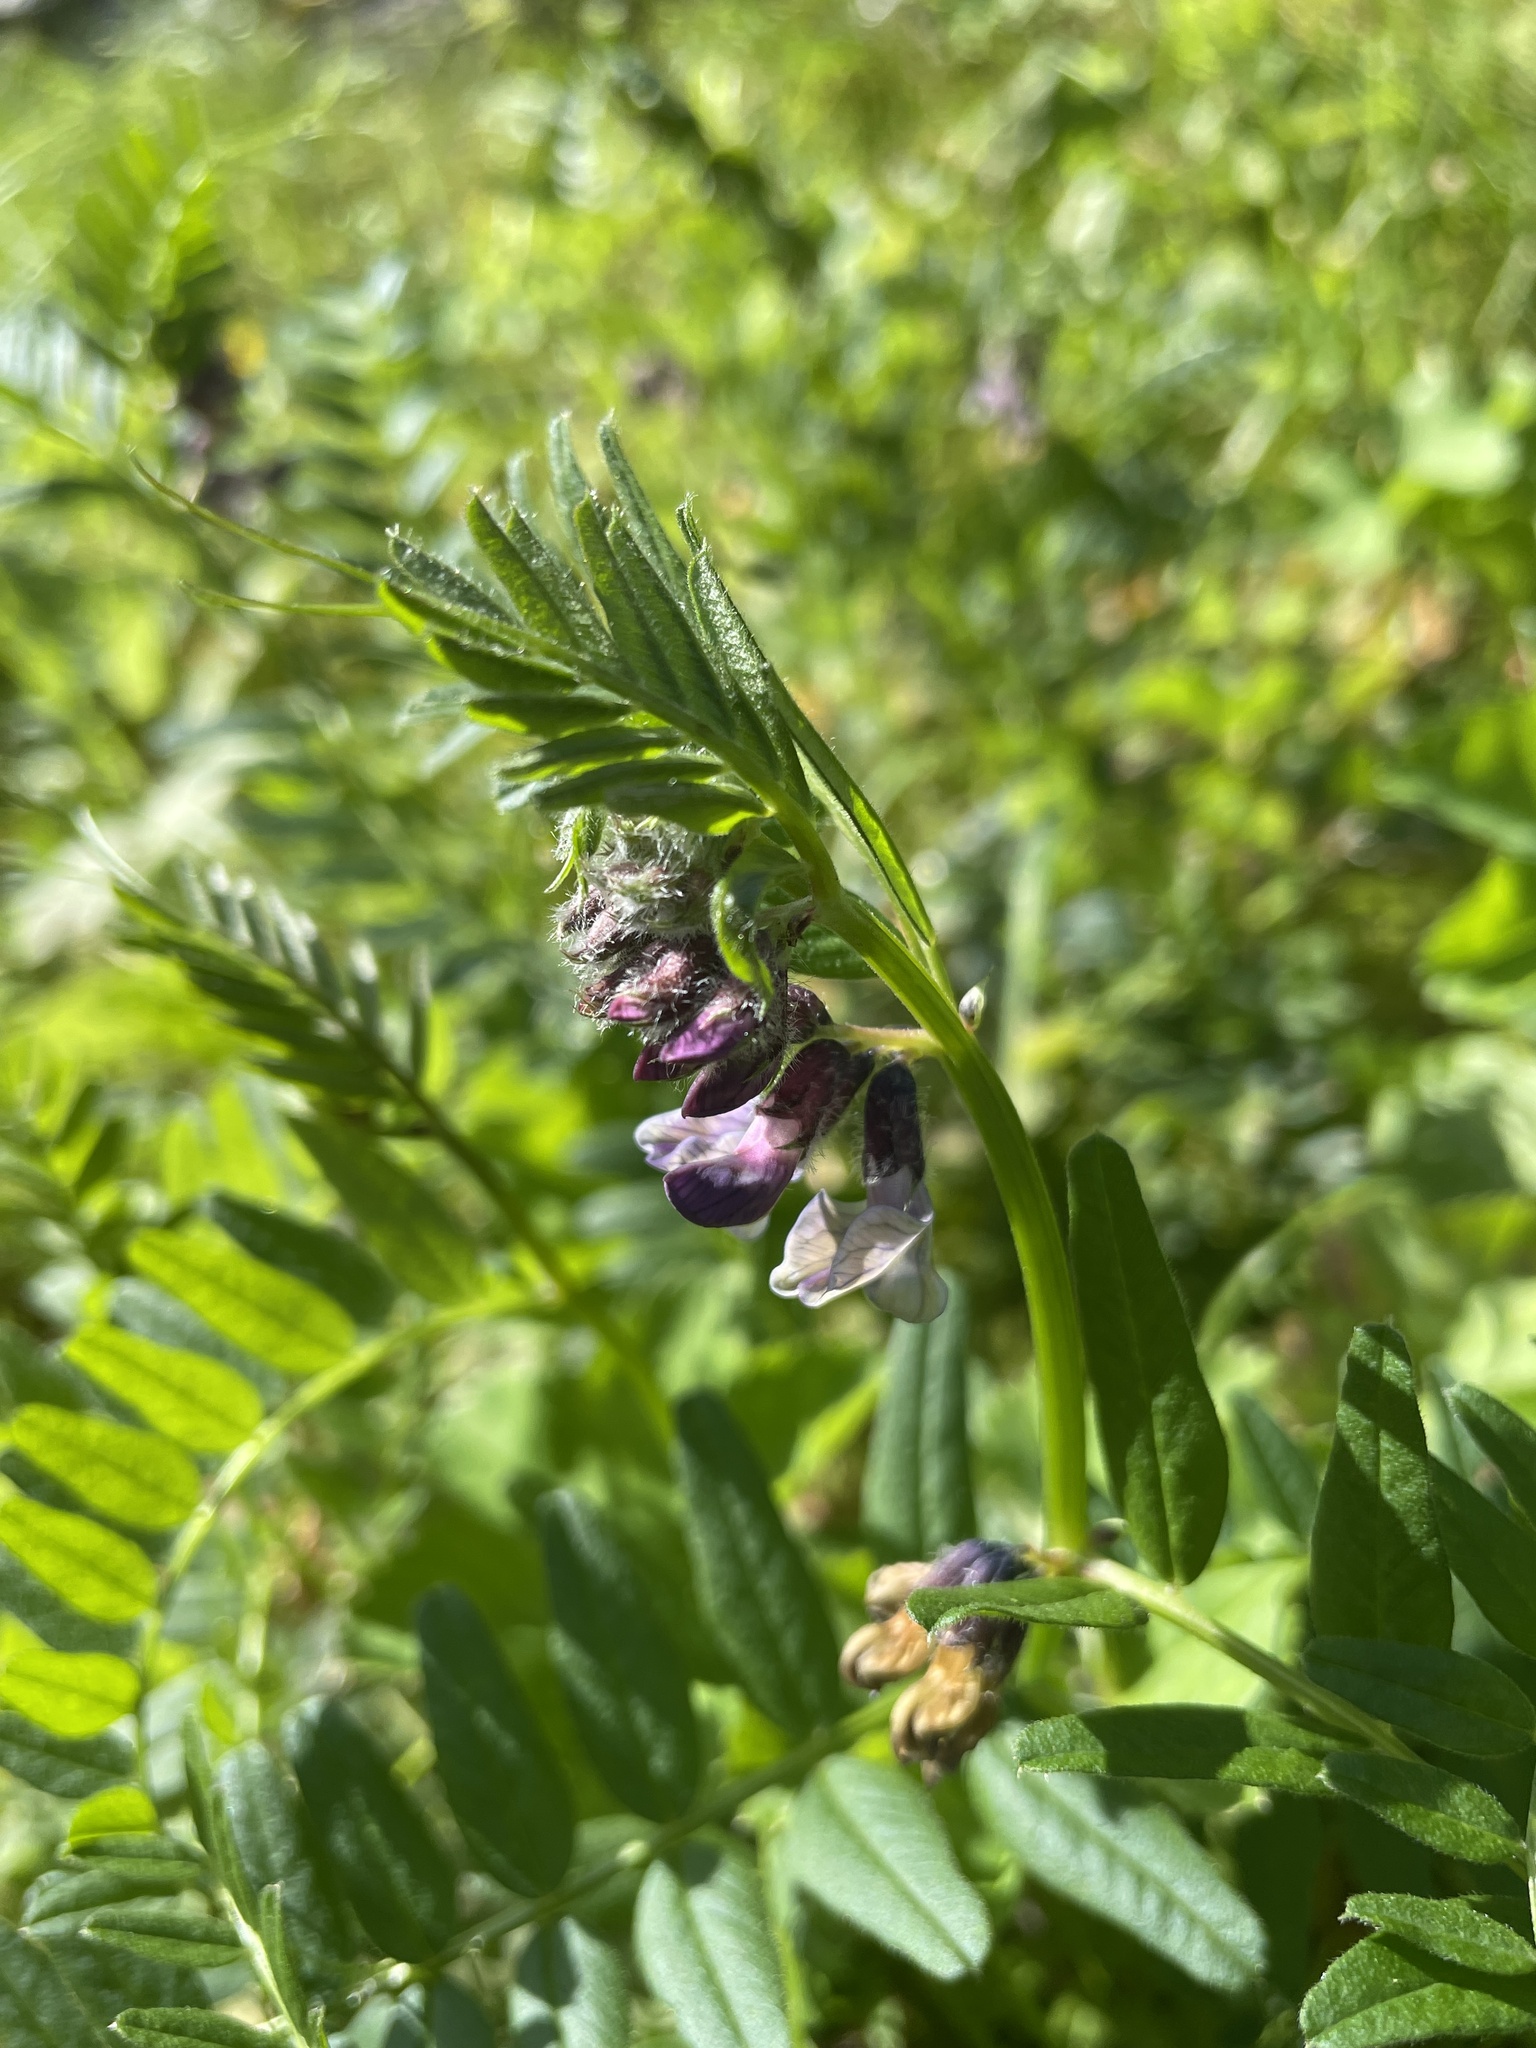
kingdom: Plantae
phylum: Tracheophyta
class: Magnoliopsida
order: Fabales
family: Fabaceae
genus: Vicia
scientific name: Vicia sepium
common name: Bush vetch
